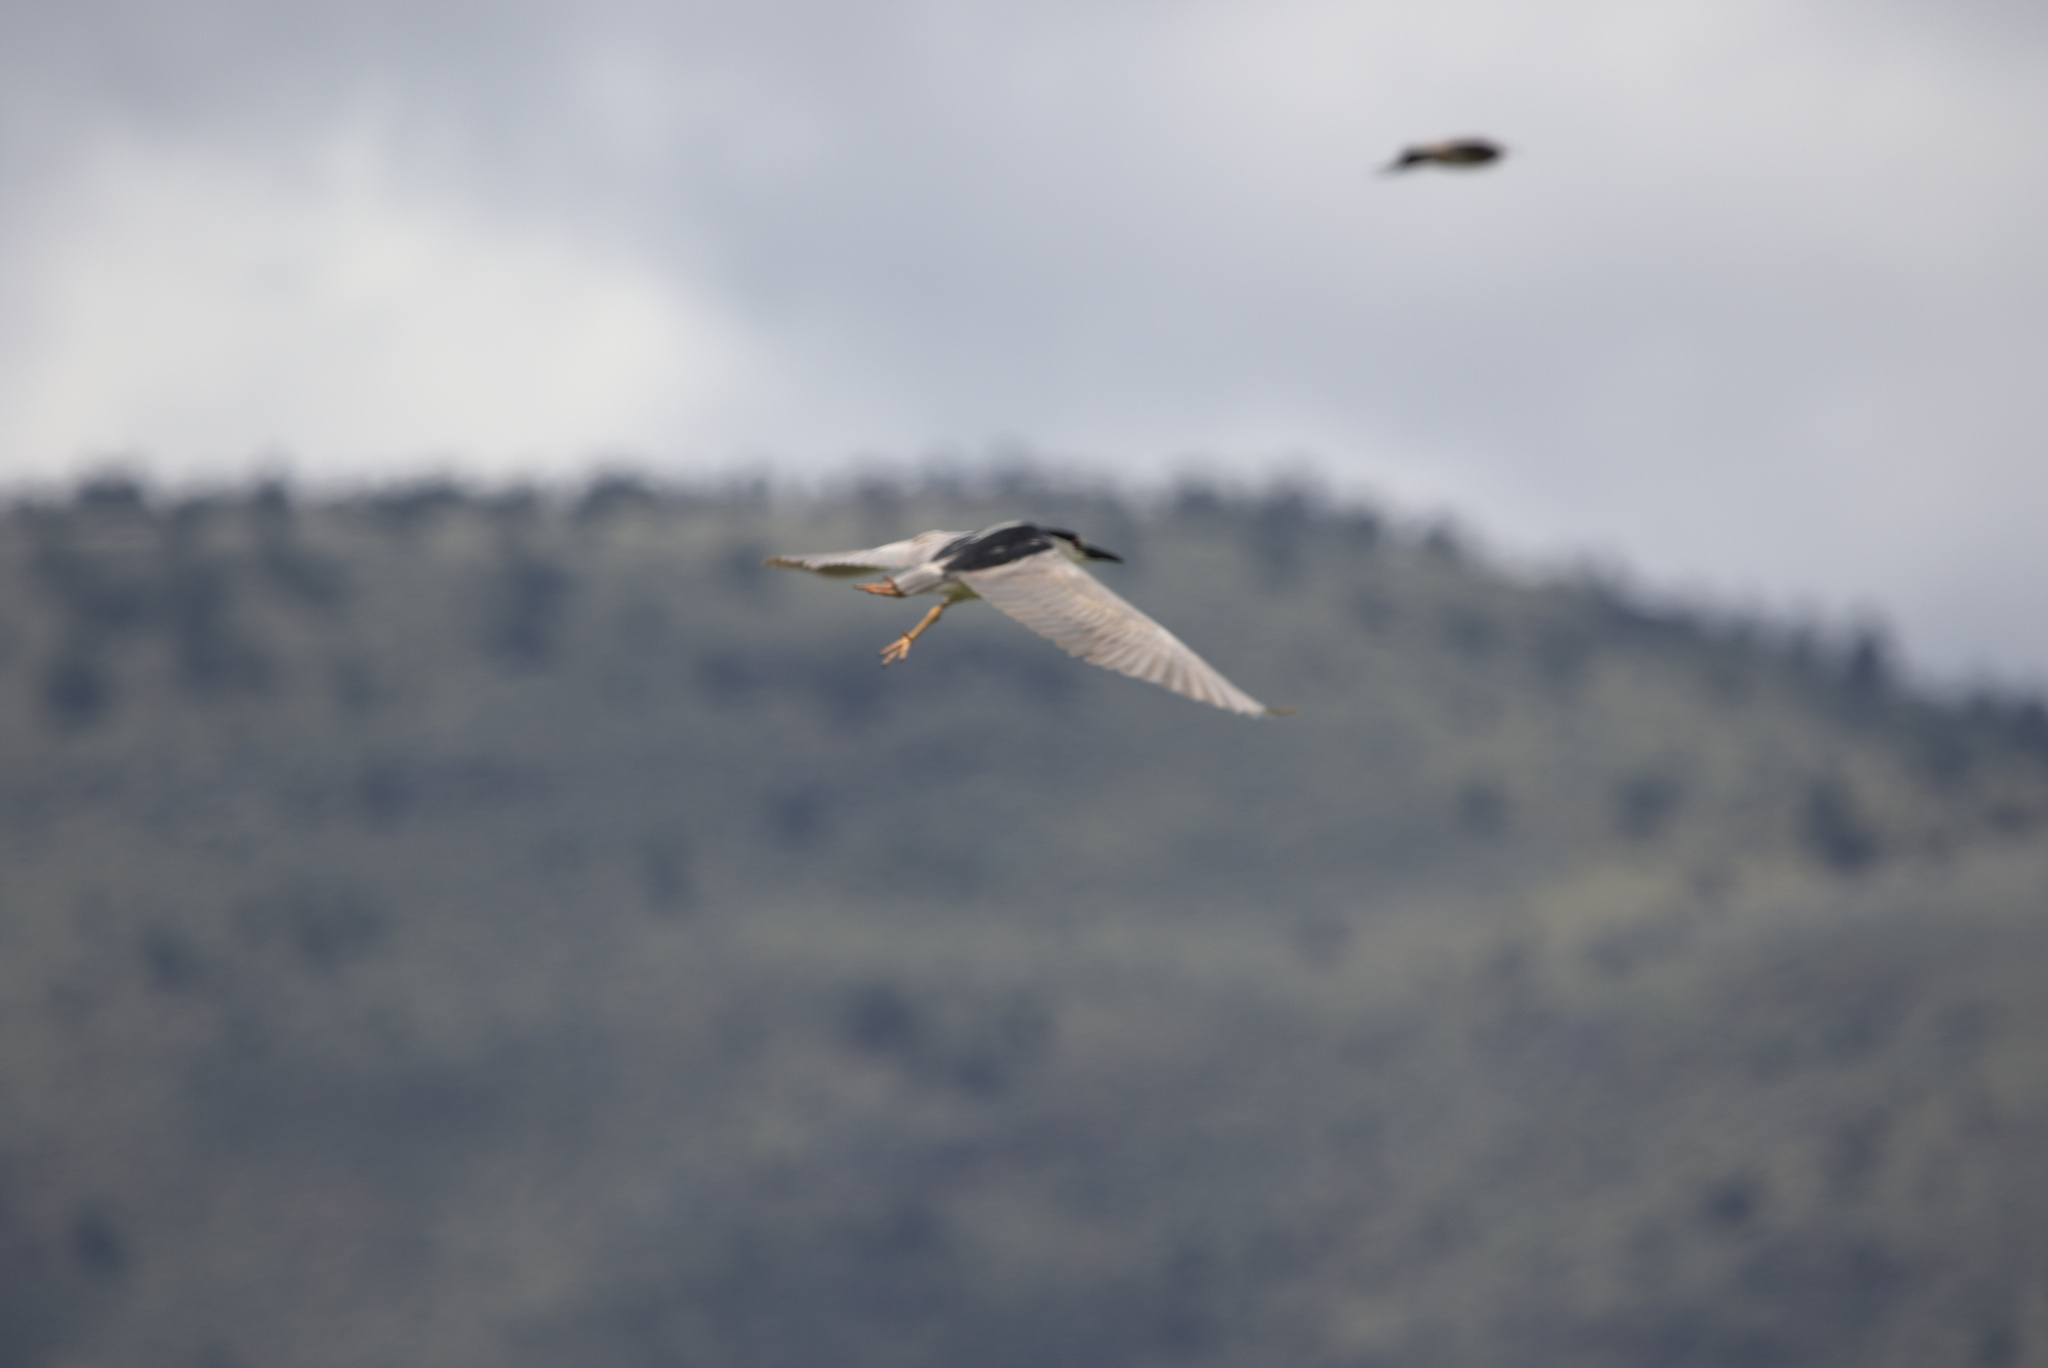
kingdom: Animalia
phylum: Chordata
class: Aves
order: Pelecaniformes
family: Ardeidae
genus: Nycticorax
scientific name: Nycticorax nycticorax
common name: Black-crowned night heron
